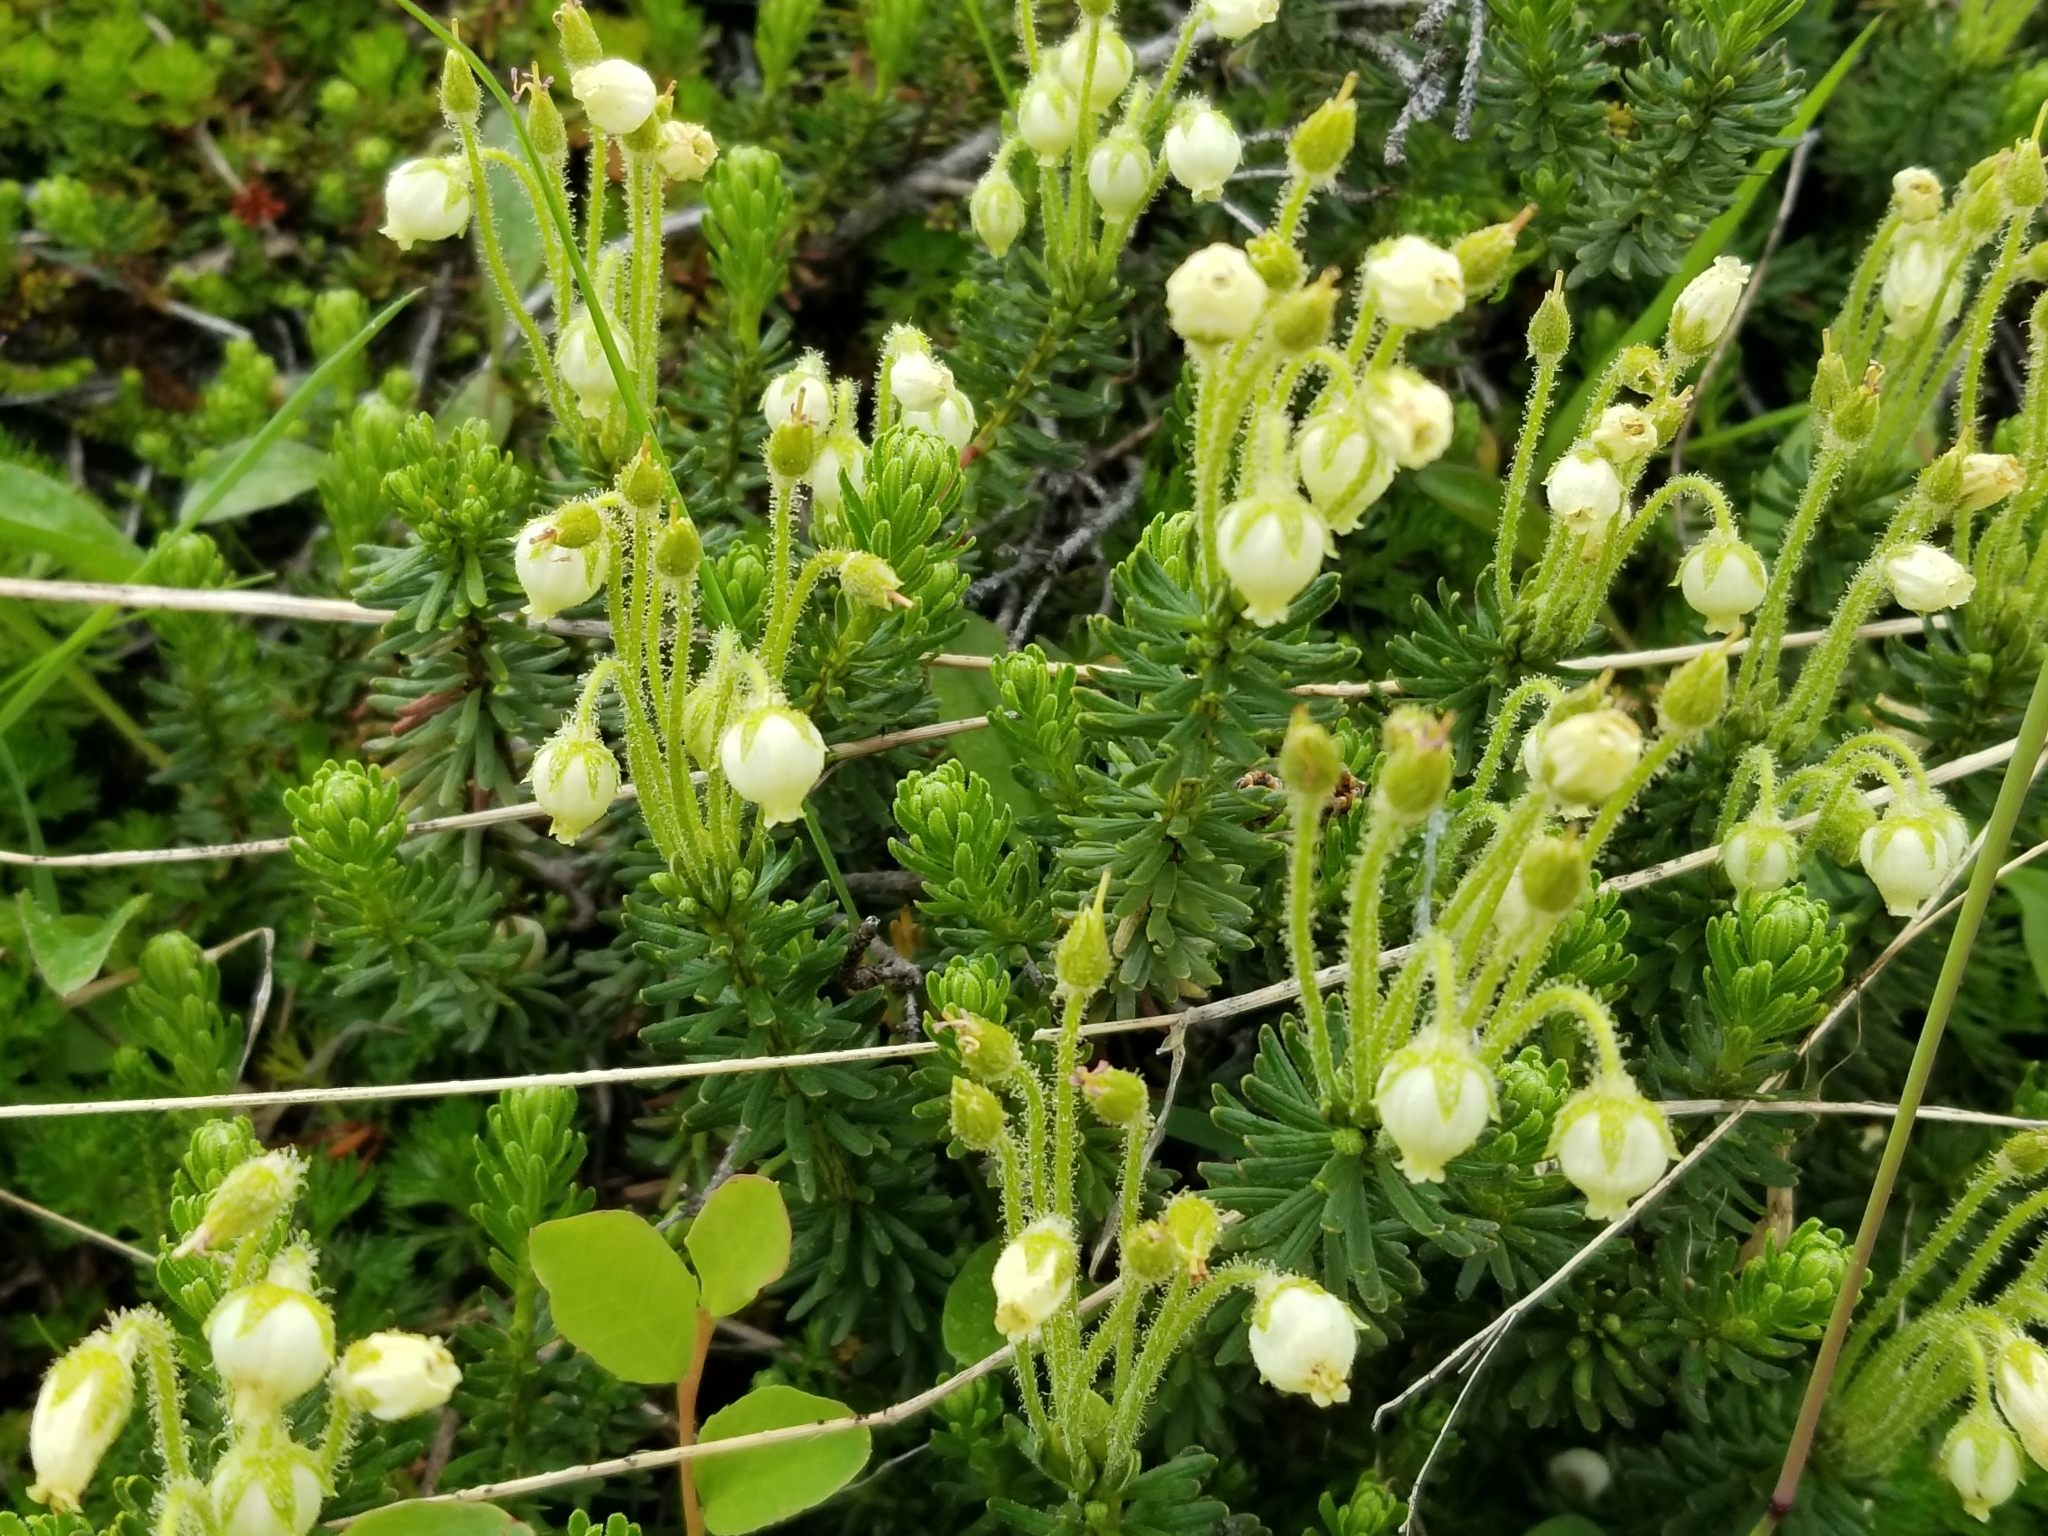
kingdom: Plantae
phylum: Tracheophyta
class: Magnoliopsida
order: Ericales
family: Ericaceae
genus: Phyllodoce
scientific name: Phyllodoce glanduliflora
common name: Cream mountain heather
